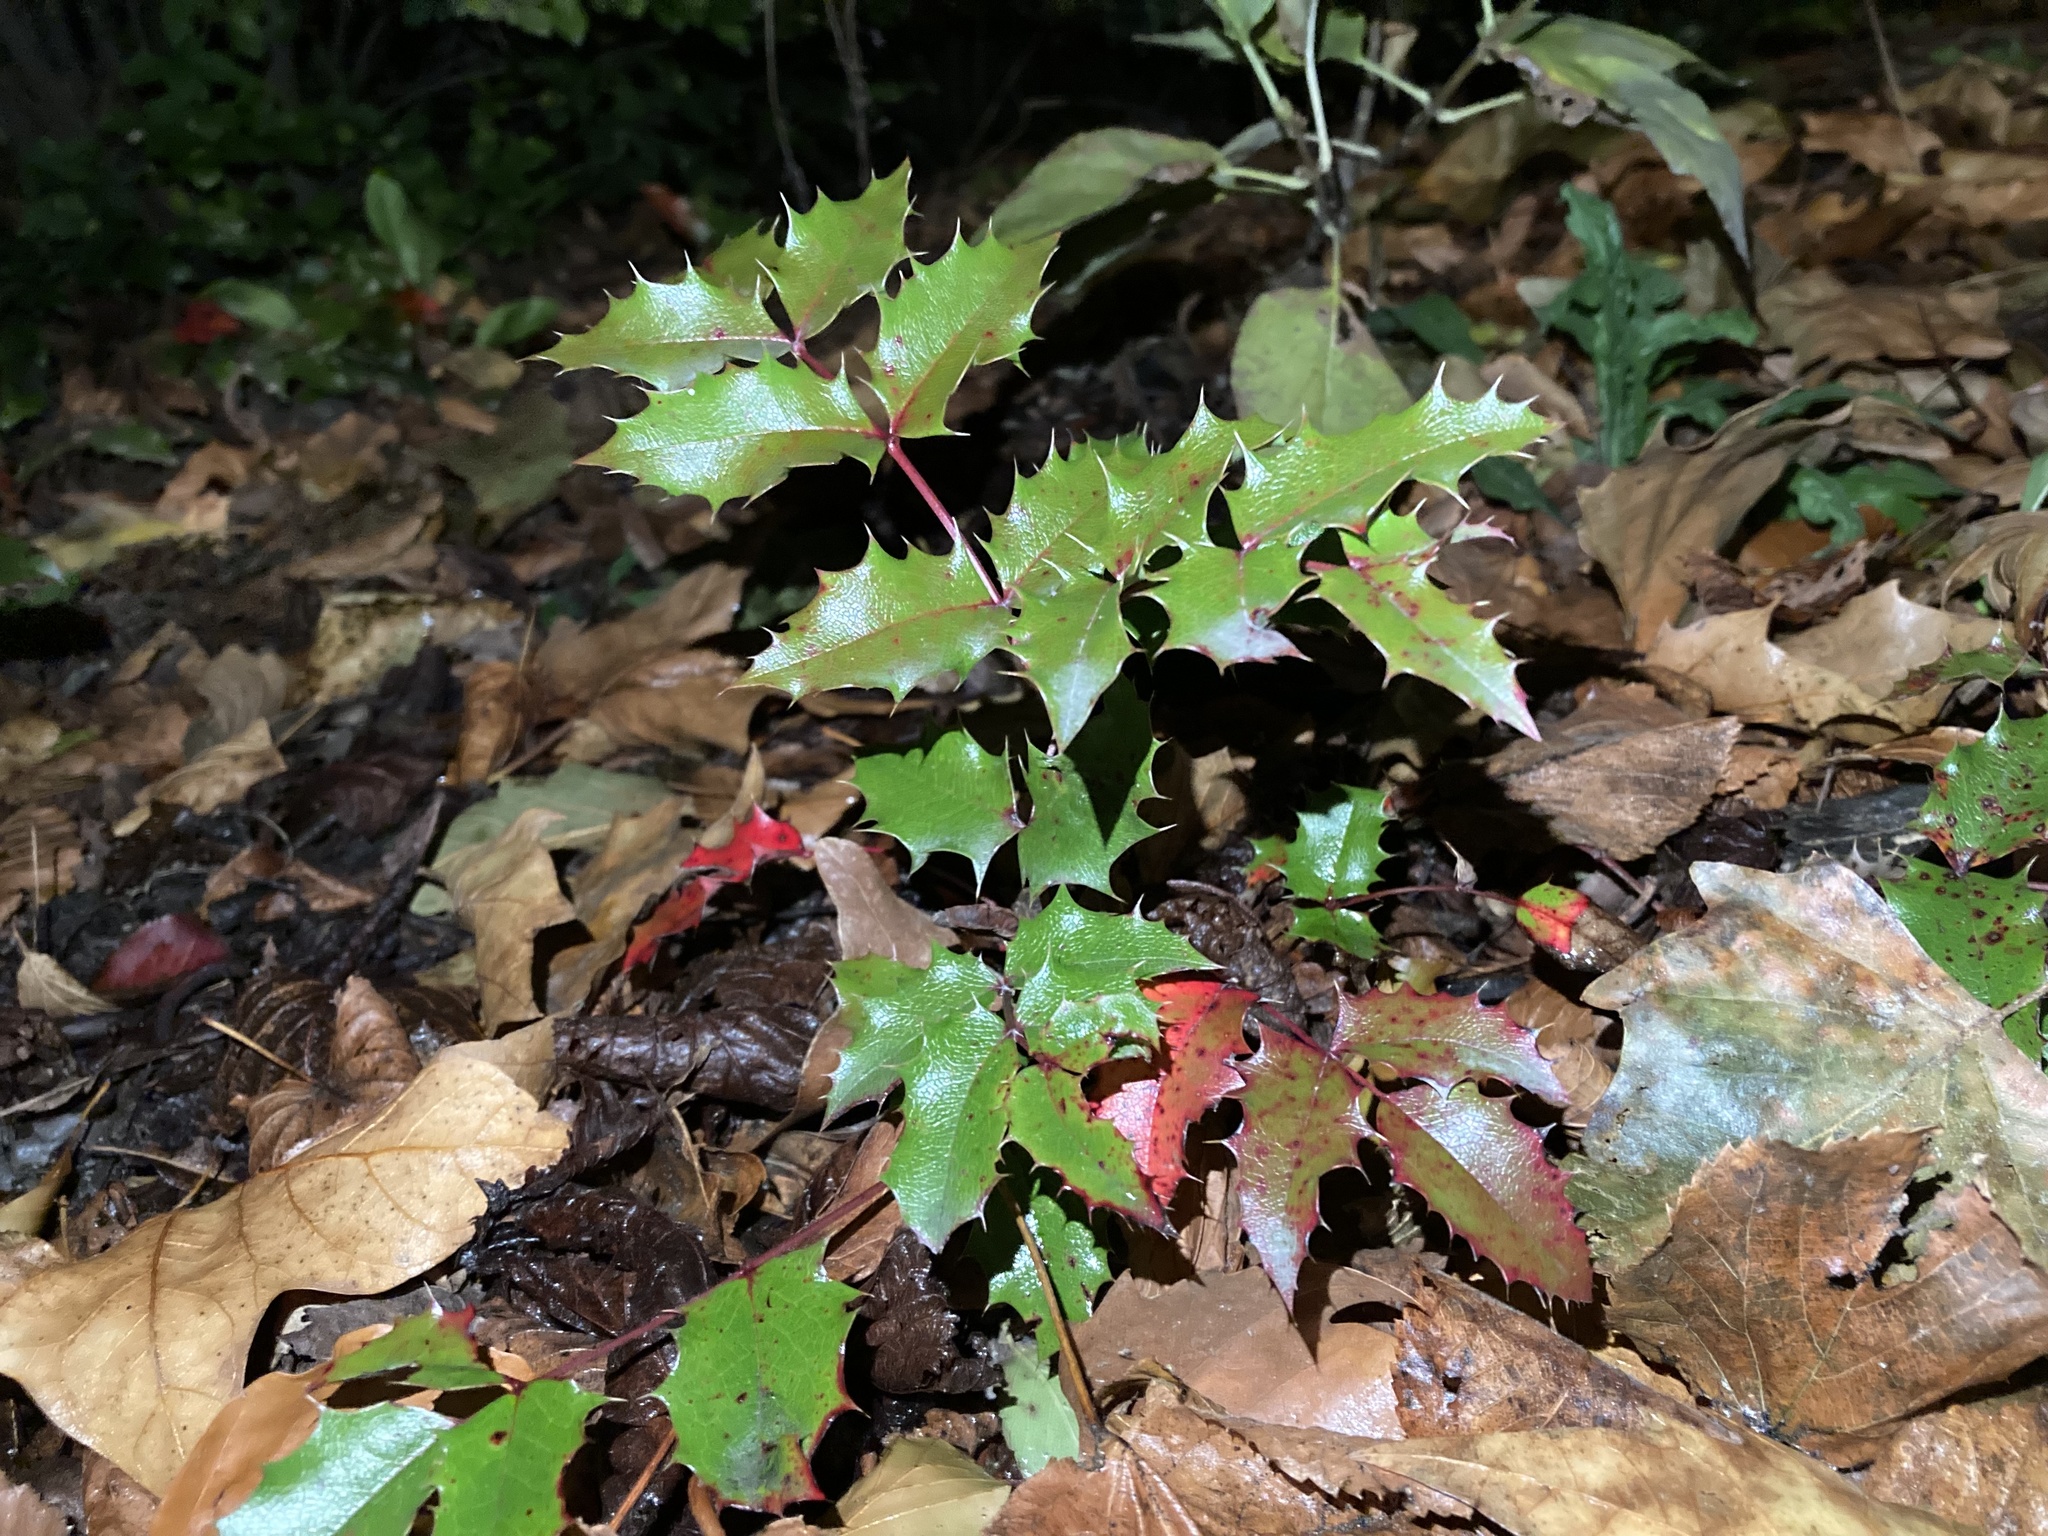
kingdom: Plantae
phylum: Tracheophyta
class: Magnoliopsida
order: Ranunculales
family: Berberidaceae
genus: Mahonia
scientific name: Mahonia aquifolium
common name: Oregon-grape
